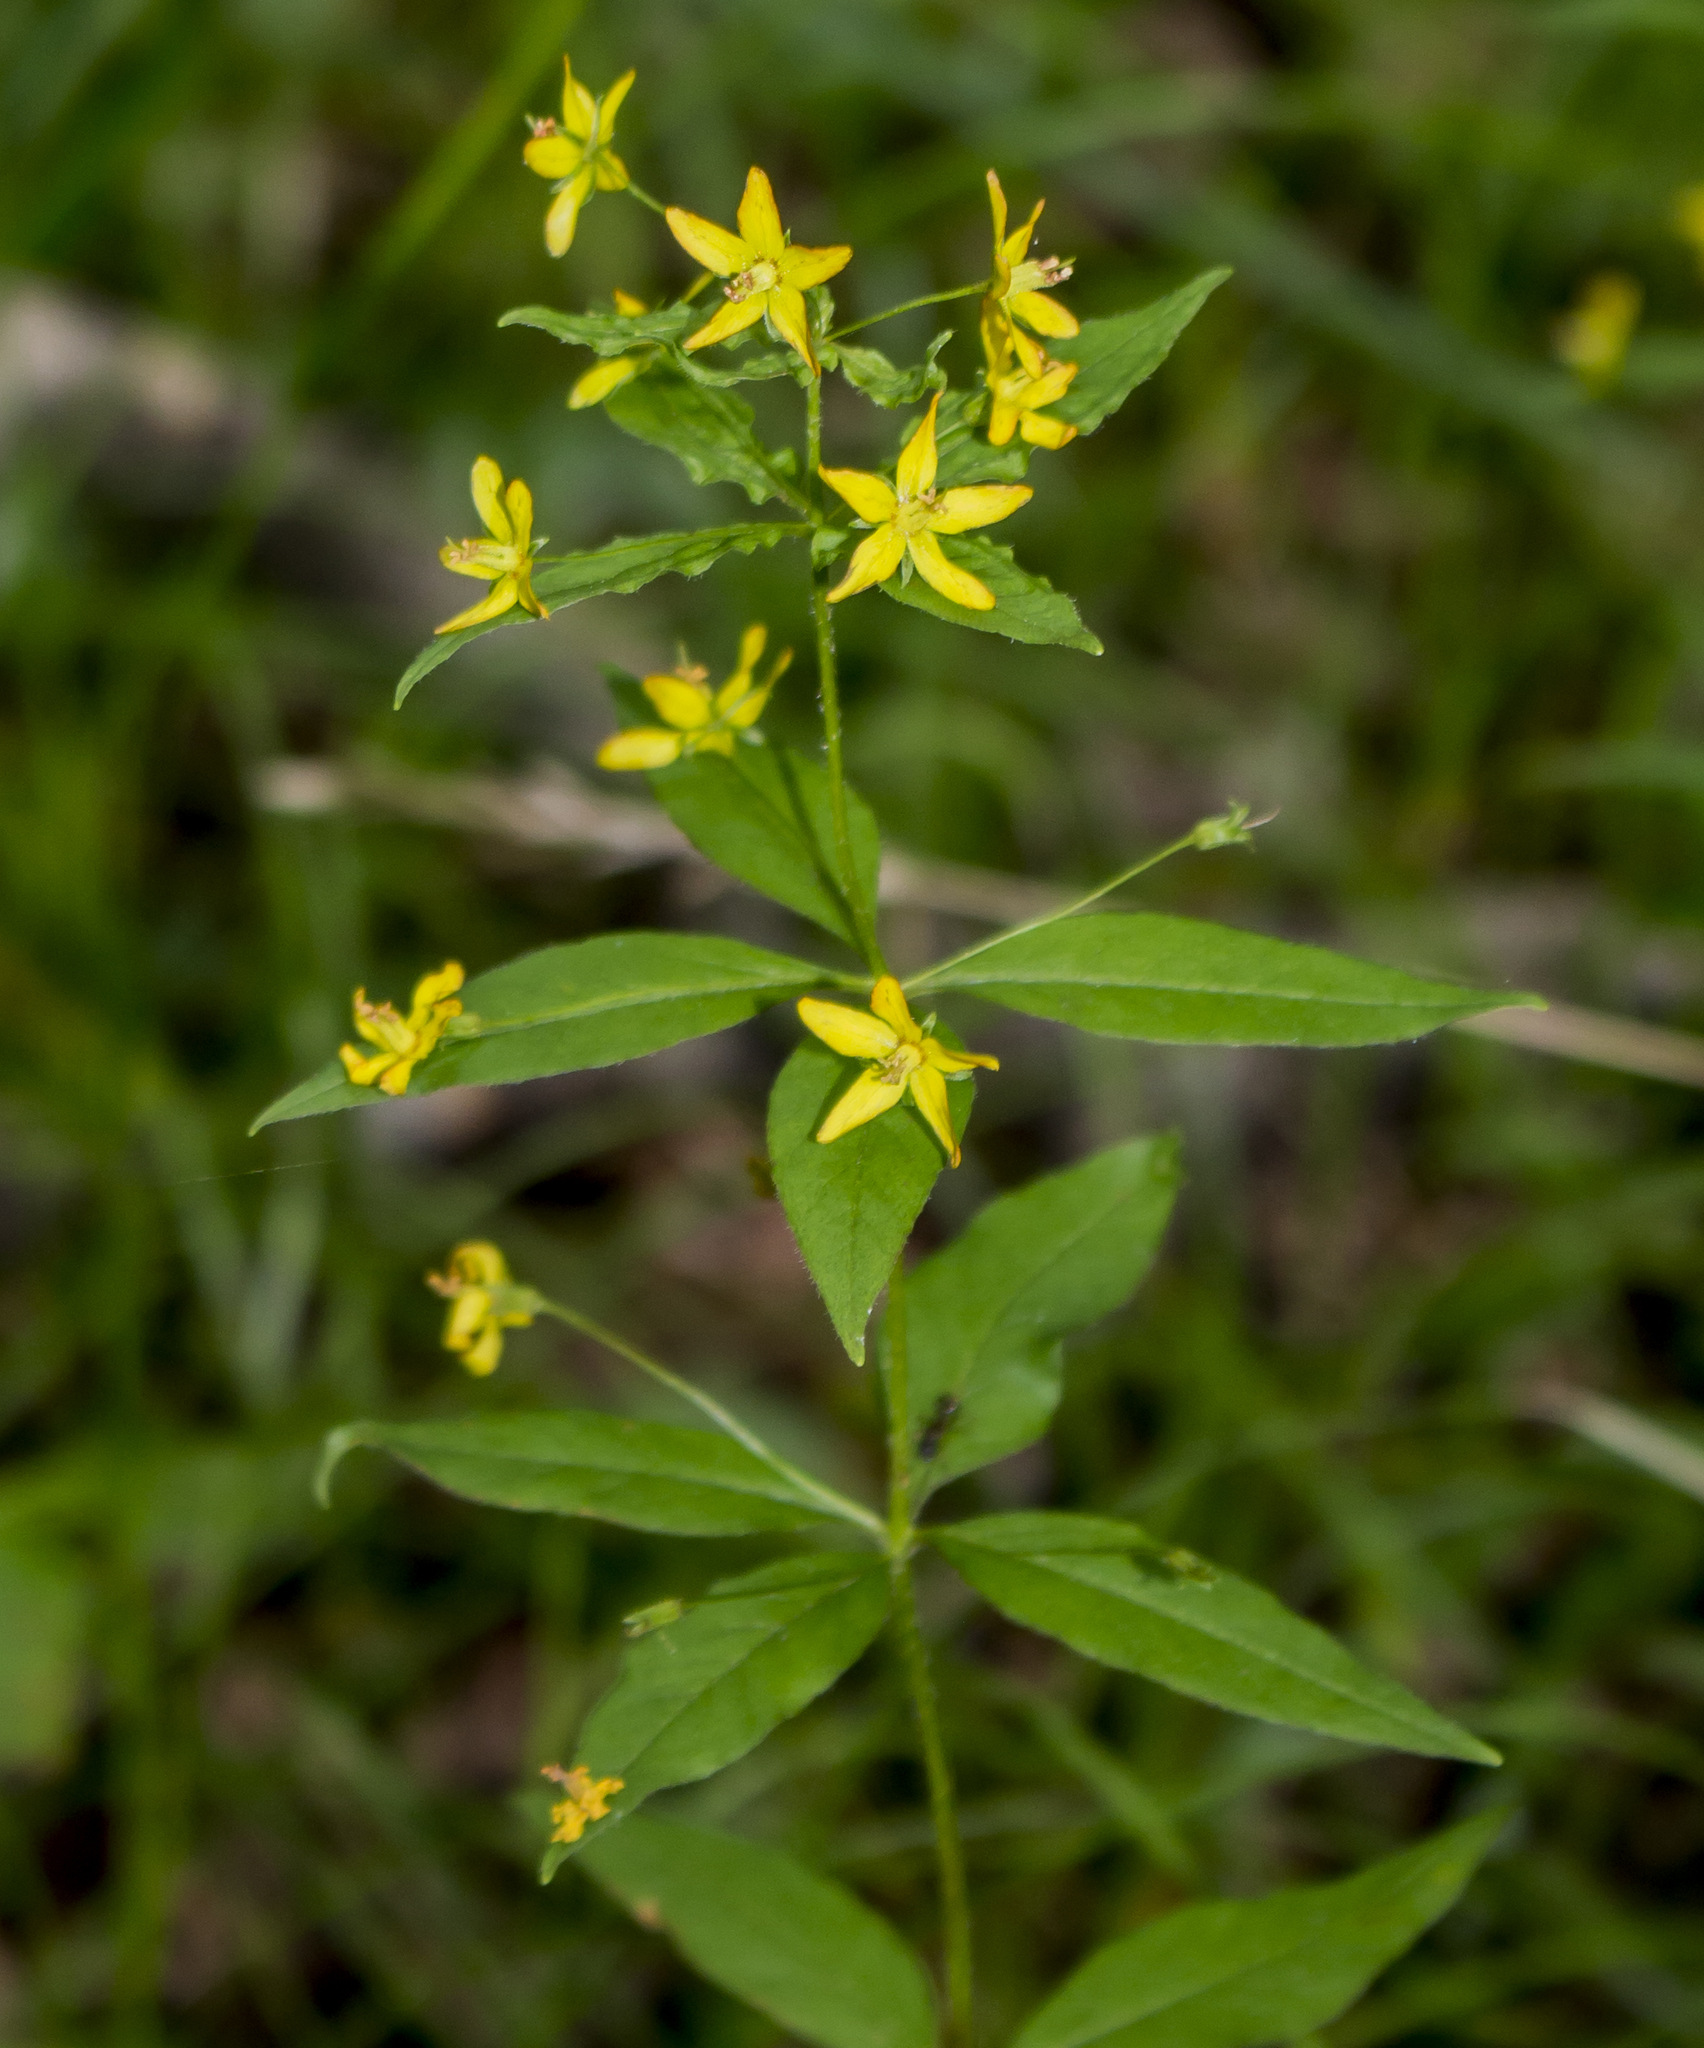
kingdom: Plantae
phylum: Tracheophyta
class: Magnoliopsida
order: Ericales
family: Primulaceae
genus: Lysimachia
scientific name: Lysimachia quadrifolia
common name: Whorled loosestrife
